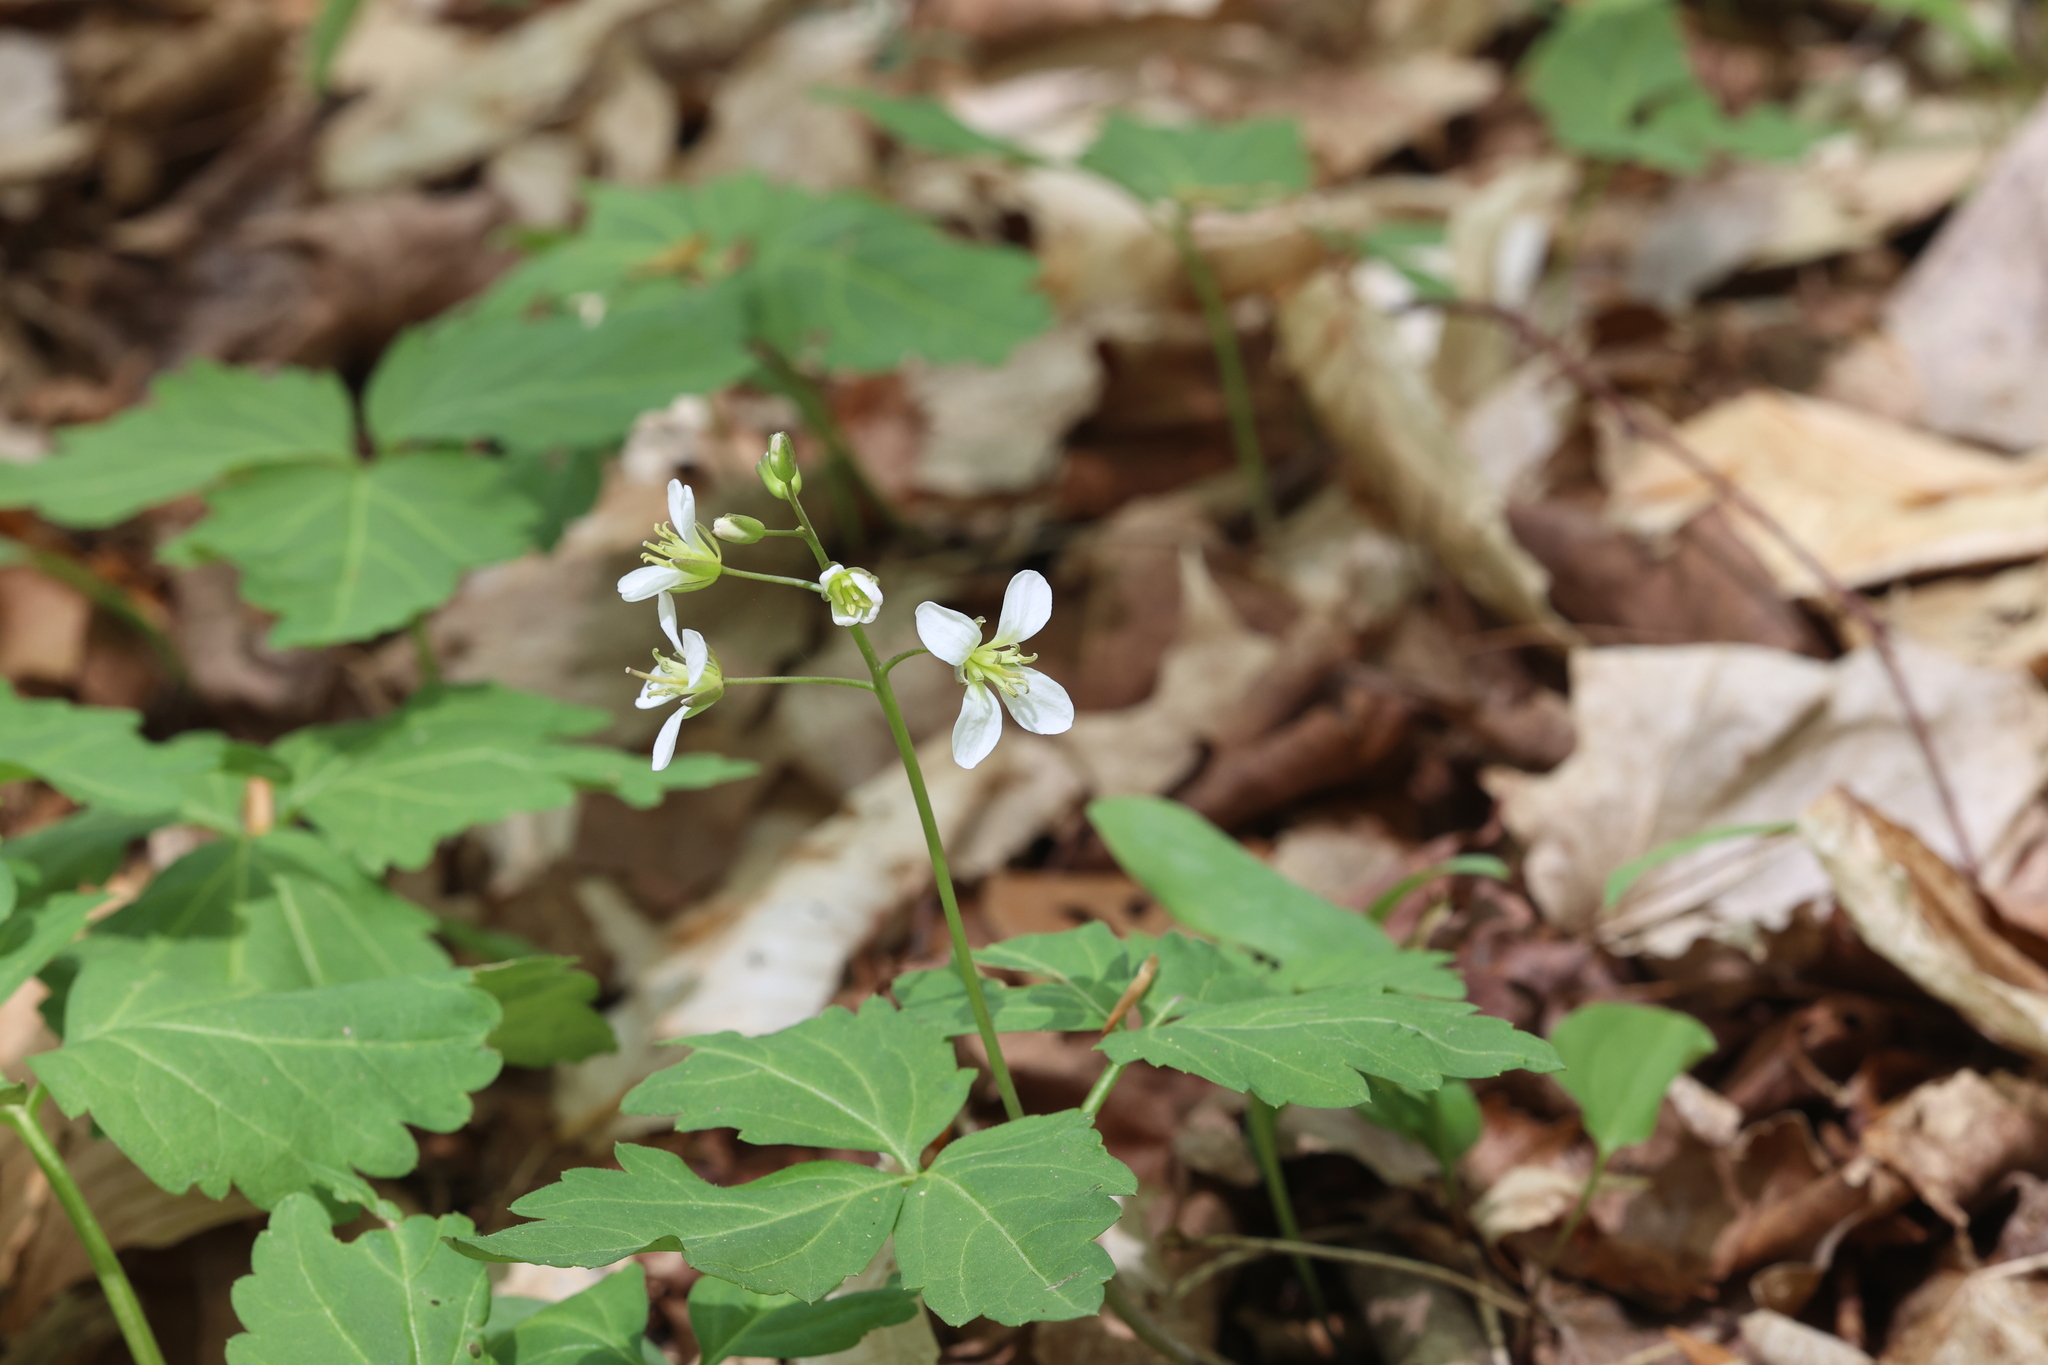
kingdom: Plantae
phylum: Tracheophyta
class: Magnoliopsida
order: Brassicales
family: Brassicaceae
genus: Cardamine
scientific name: Cardamine diphylla
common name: Broad-leaved toothwort
